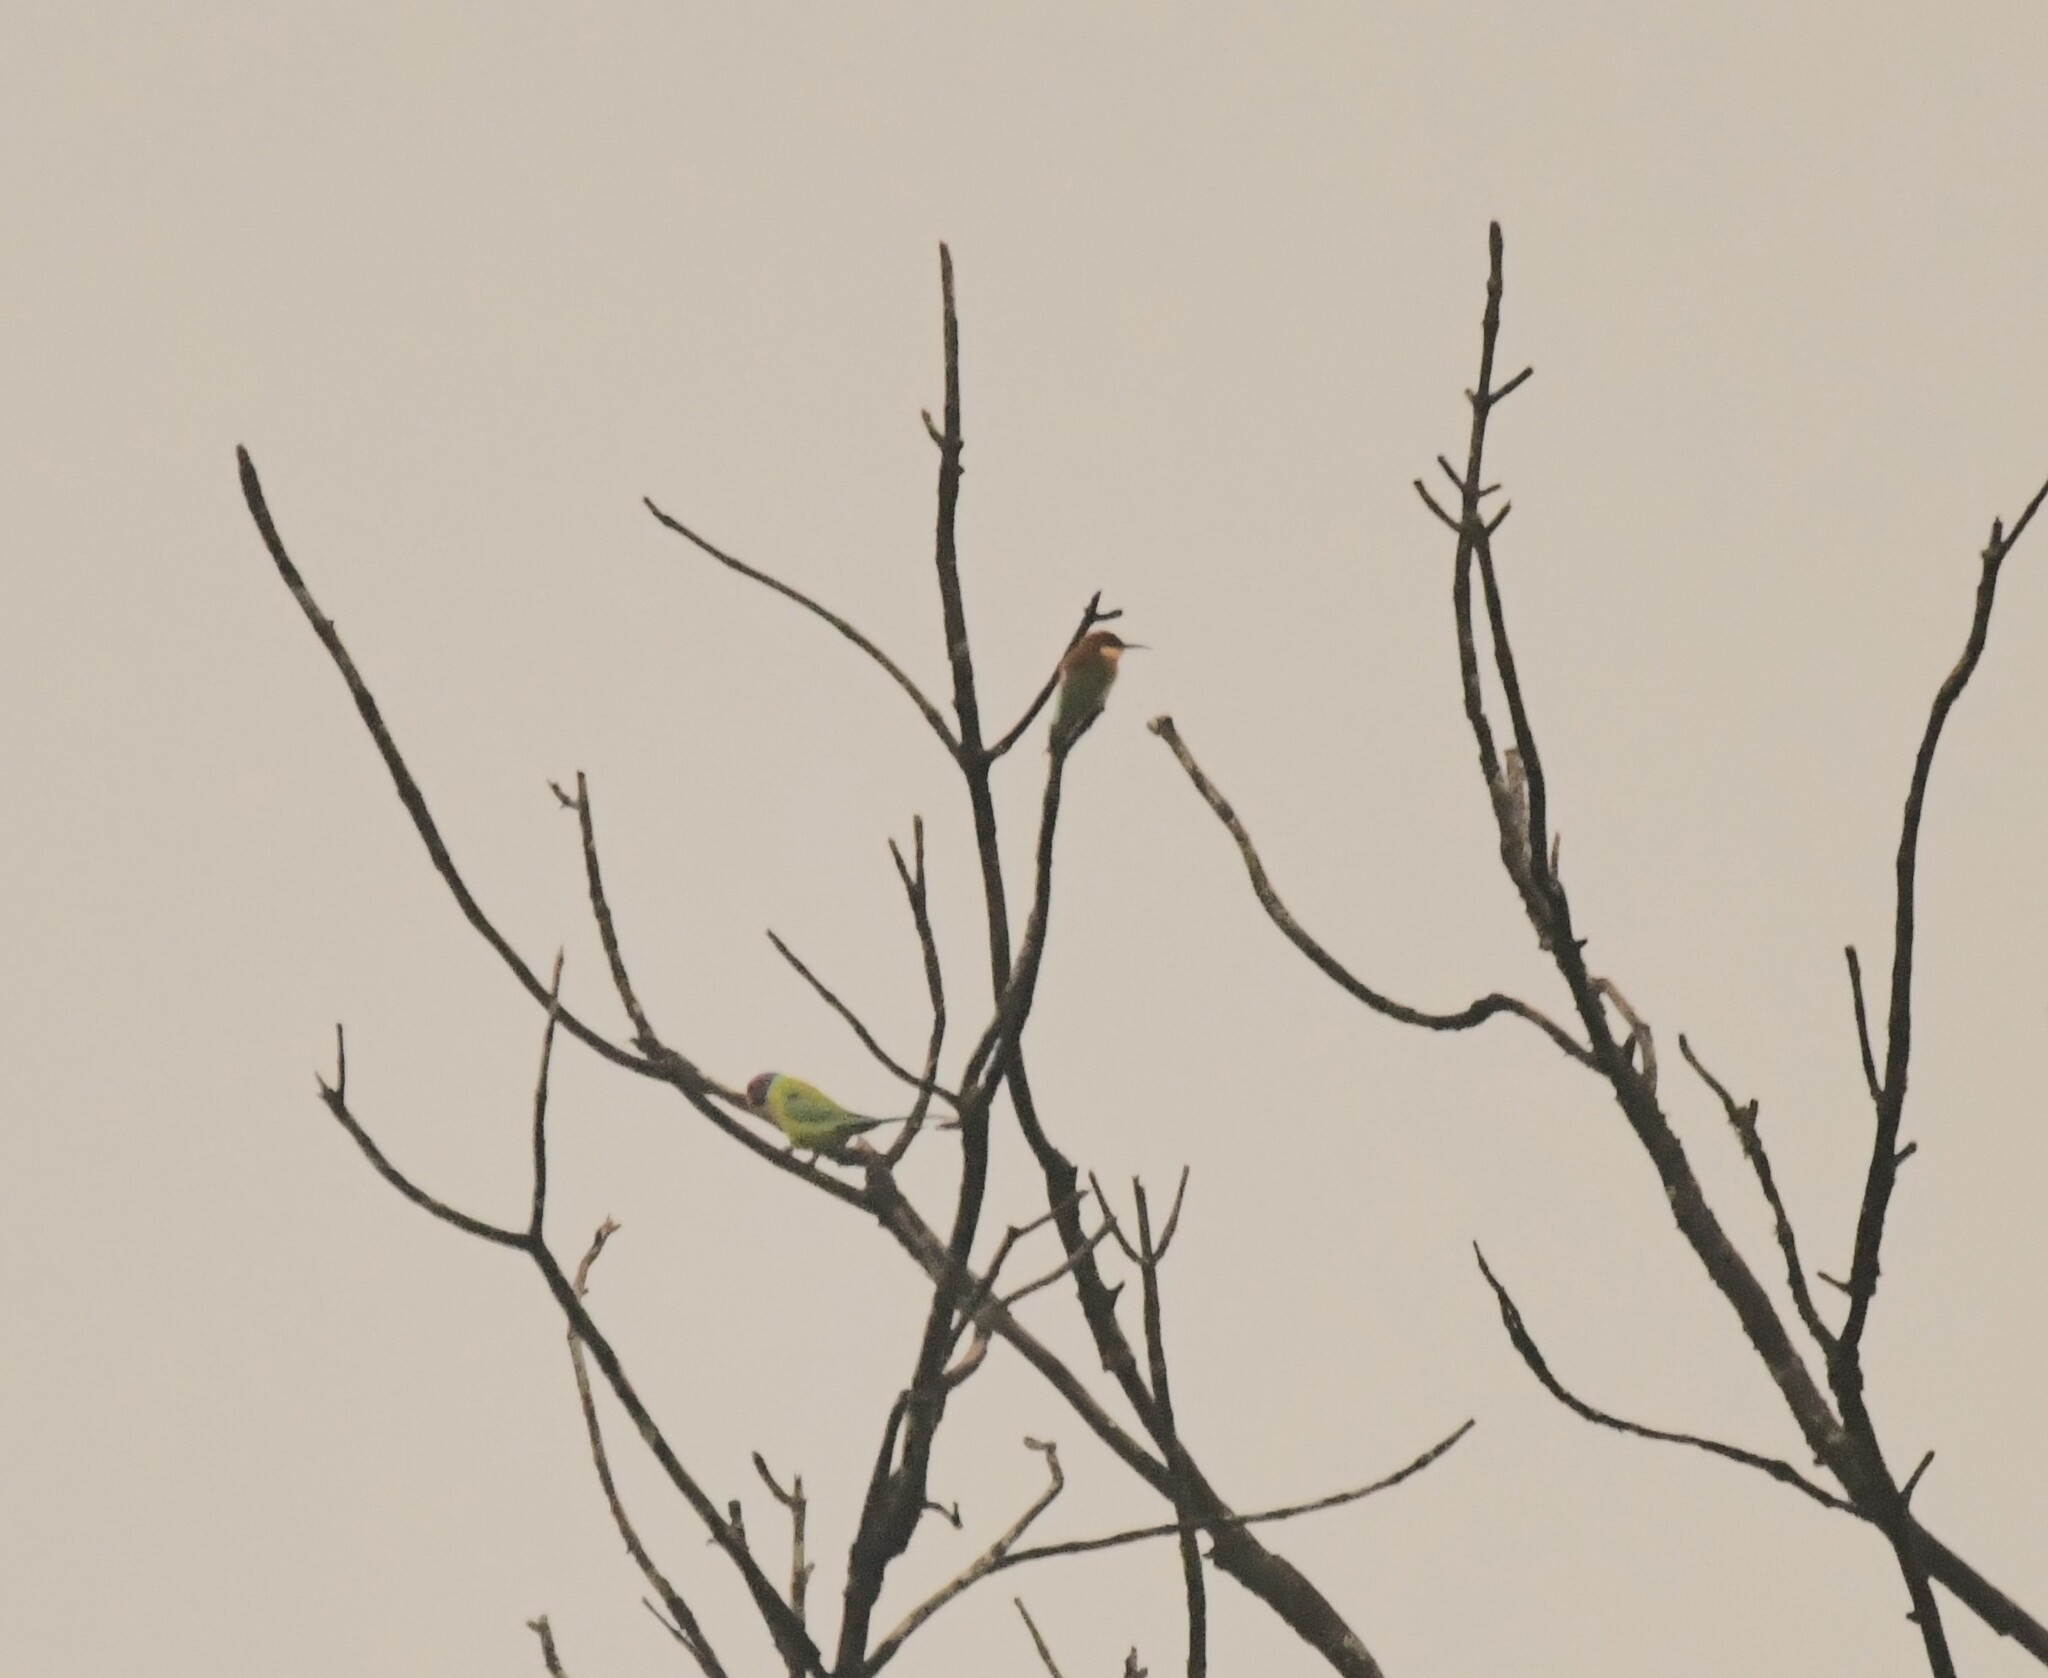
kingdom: Animalia
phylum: Chordata
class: Aves
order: Psittaciformes
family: Psittacidae
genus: Psittacula
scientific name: Psittacula cyanocephala
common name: Plum-headed parakeet
